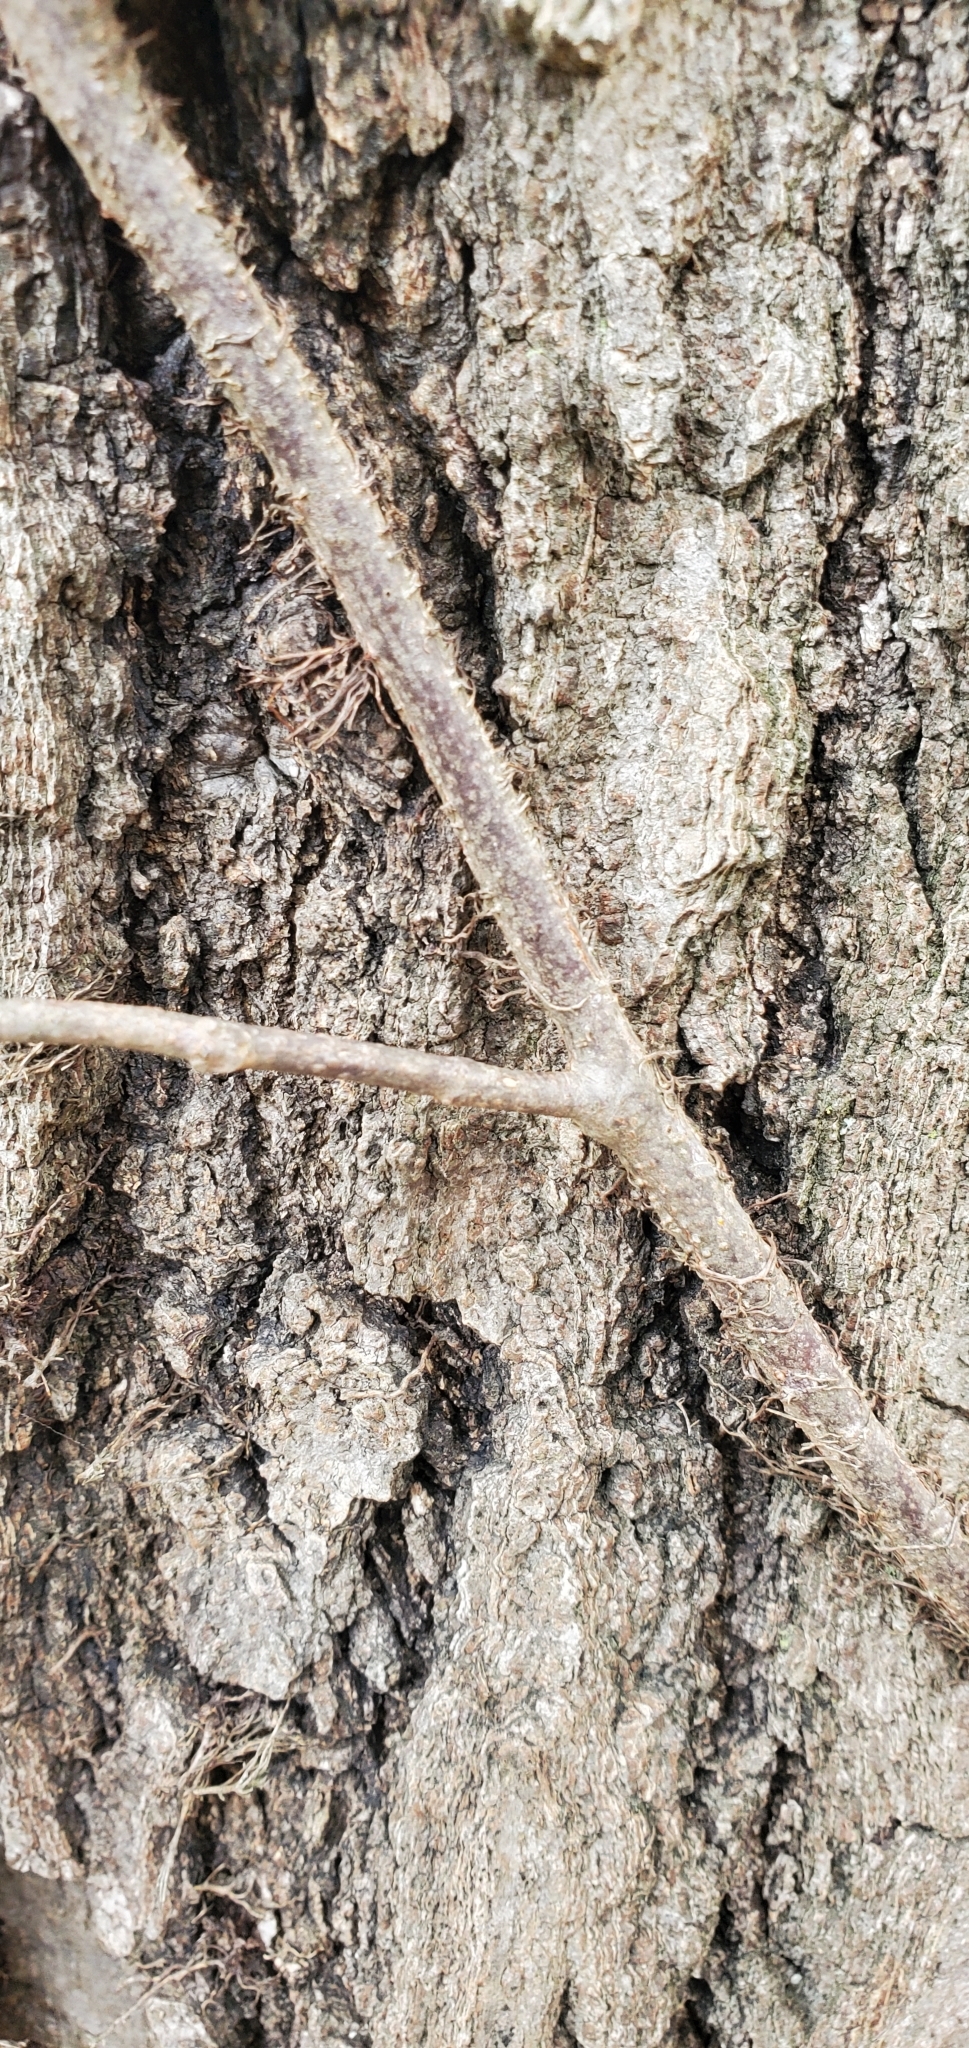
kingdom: Plantae
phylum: Tracheophyta
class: Magnoliopsida
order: Sapindales
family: Anacardiaceae
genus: Toxicodendron
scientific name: Toxicodendron radicans
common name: Poison ivy
